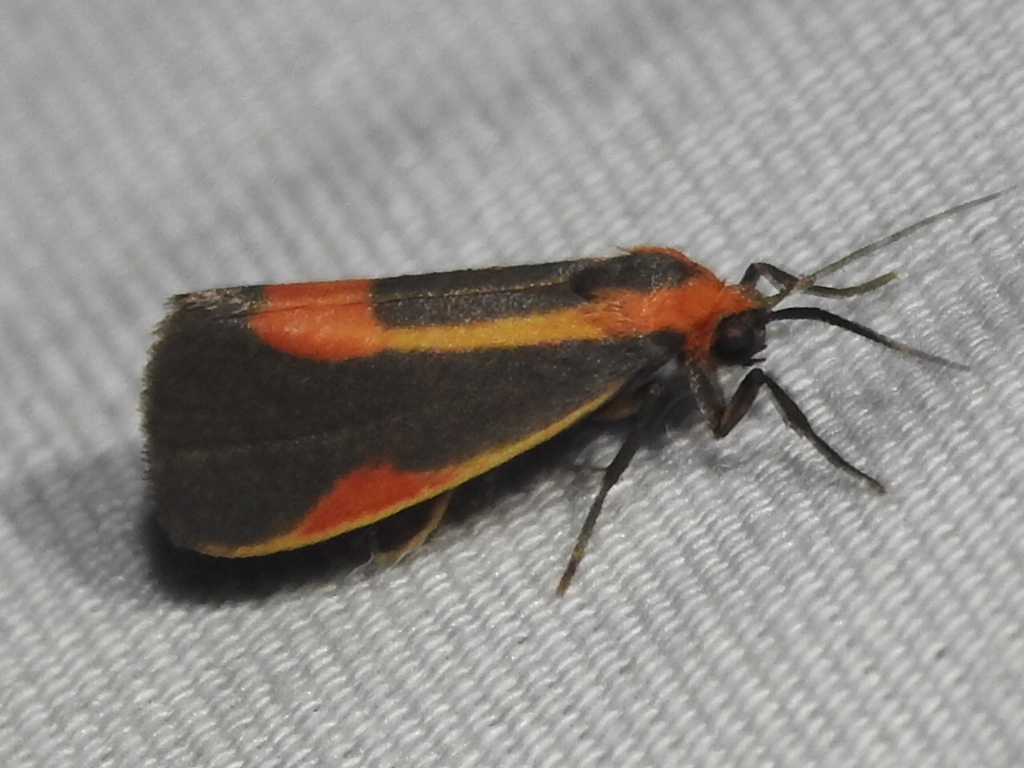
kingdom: Animalia
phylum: Arthropoda
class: Insecta
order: Lepidoptera
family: Erebidae
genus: Cisthene
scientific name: Cisthene subjecta
